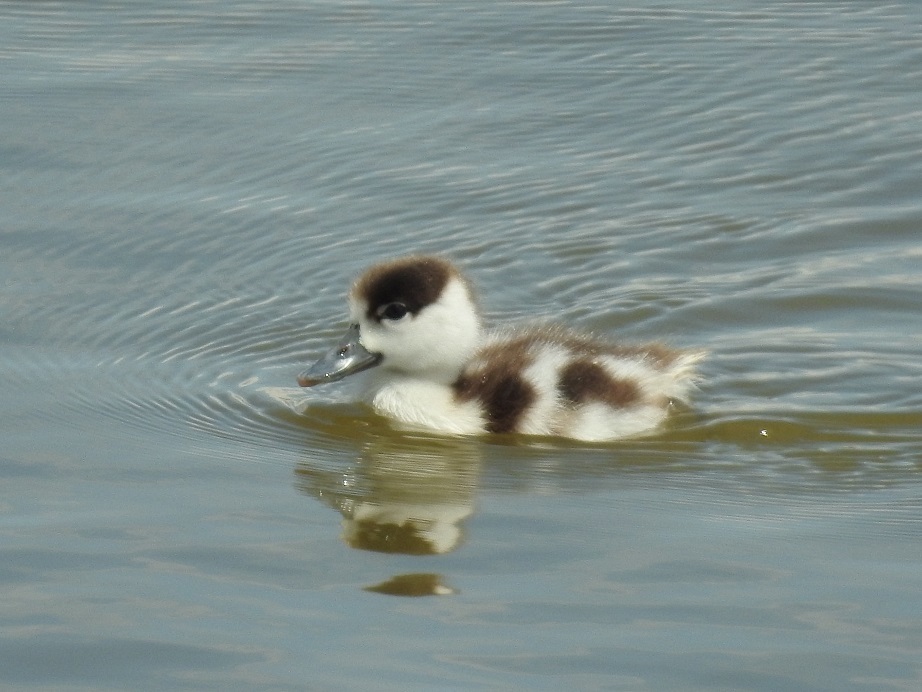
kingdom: Animalia
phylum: Chordata
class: Aves
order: Anseriformes
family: Anatidae
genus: Tadorna
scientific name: Tadorna tadorna
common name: Common shelduck
